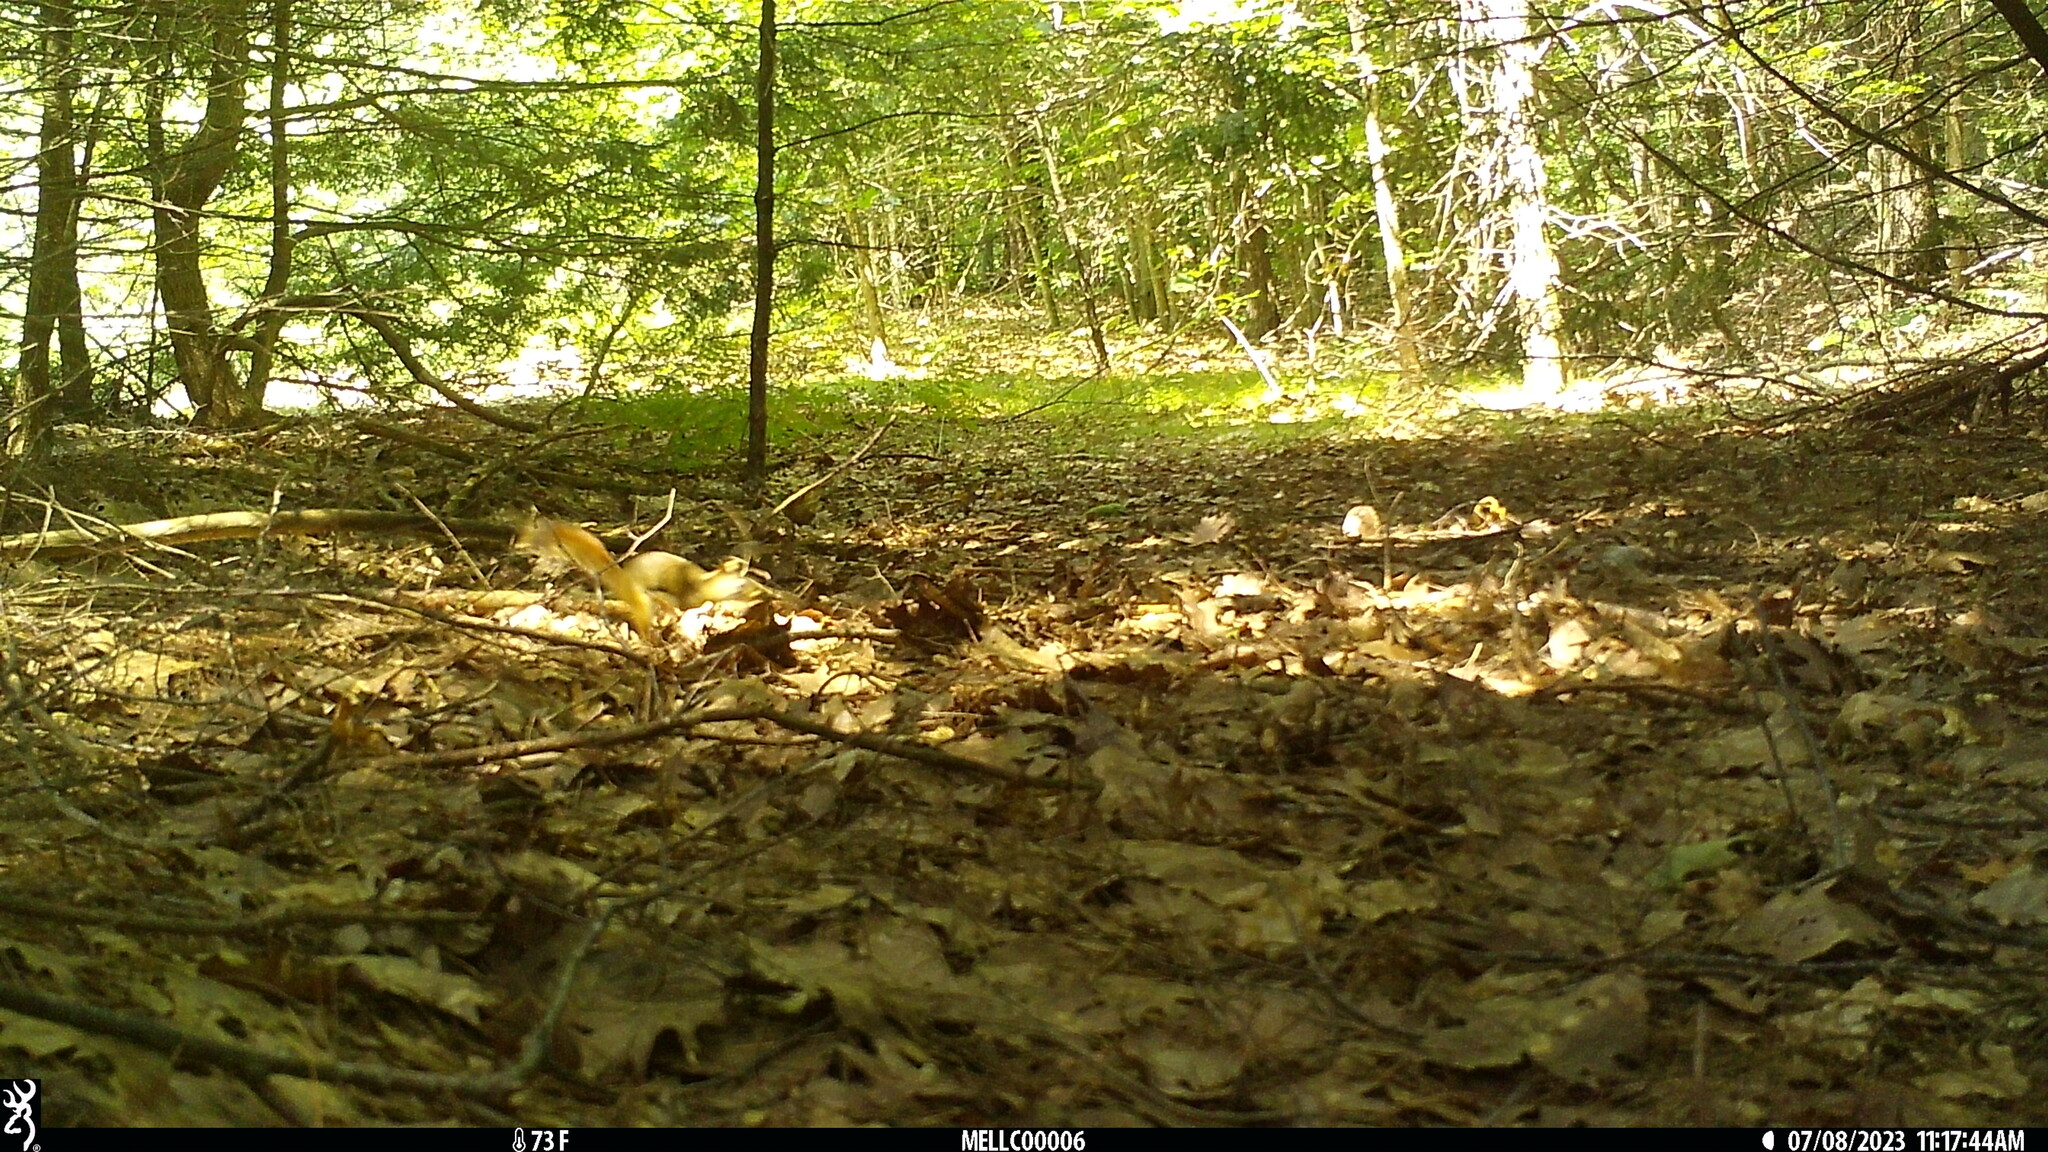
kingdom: Animalia
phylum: Chordata
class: Mammalia
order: Rodentia
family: Sciuridae
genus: Tamiasciurus
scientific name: Tamiasciurus hudsonicus
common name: Red squirrel
